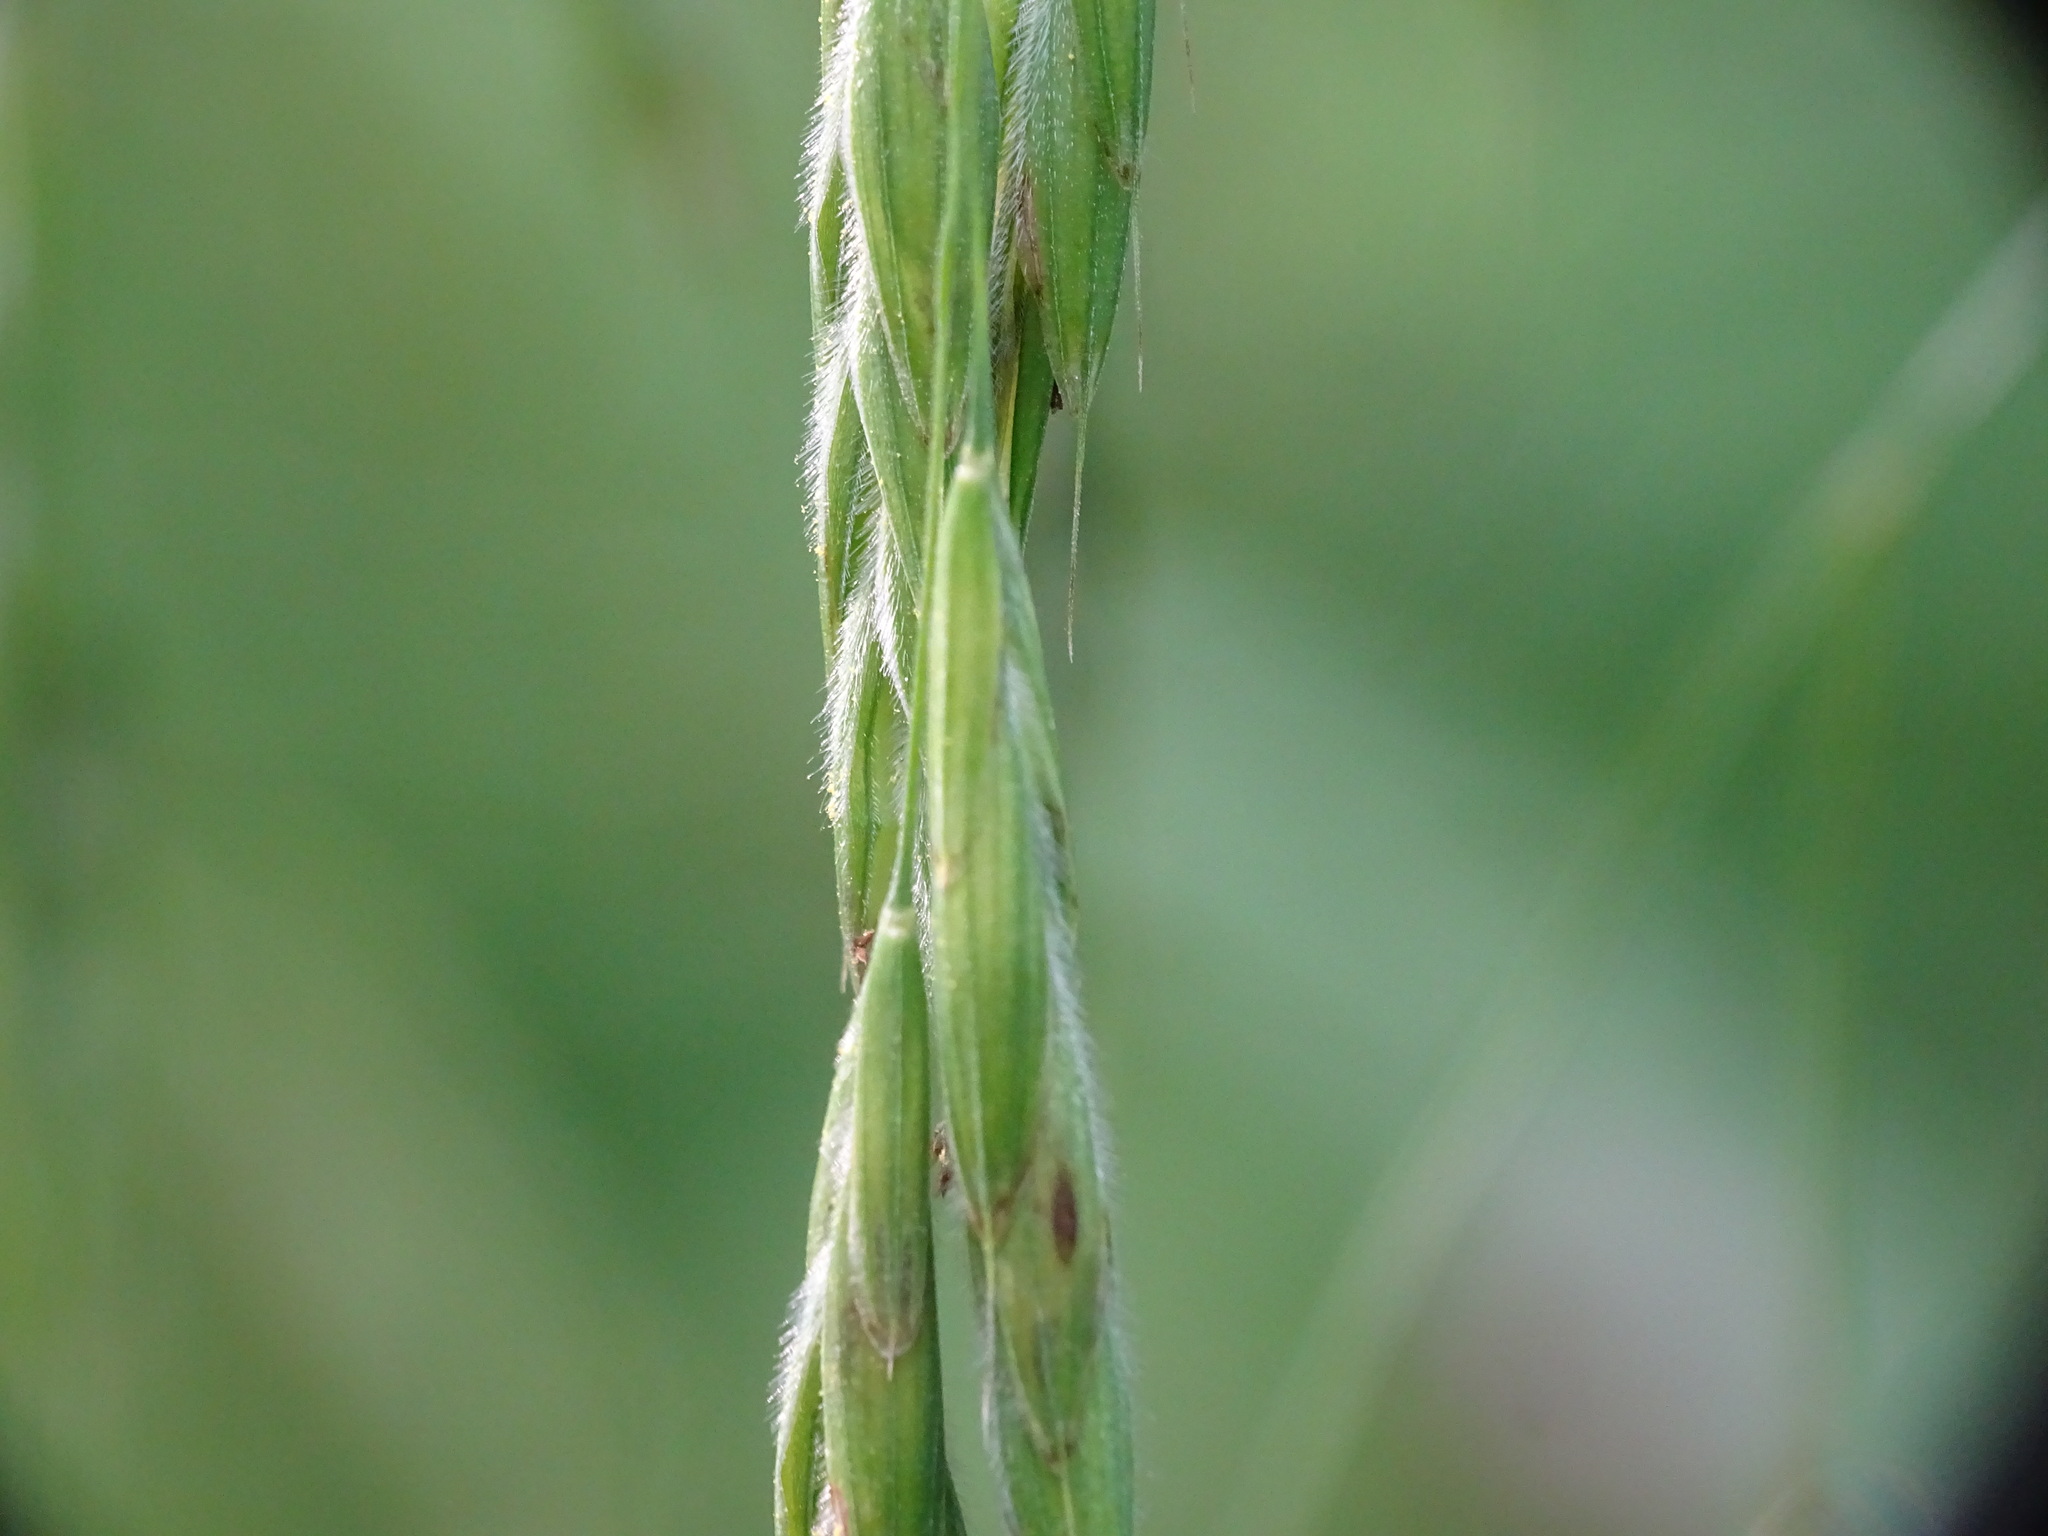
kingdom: Plantae
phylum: Tracheophyta
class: Liliopsida
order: Poales
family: Poaceae
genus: Bromus
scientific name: Bromus latiglumis
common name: Broad-glumed brome
